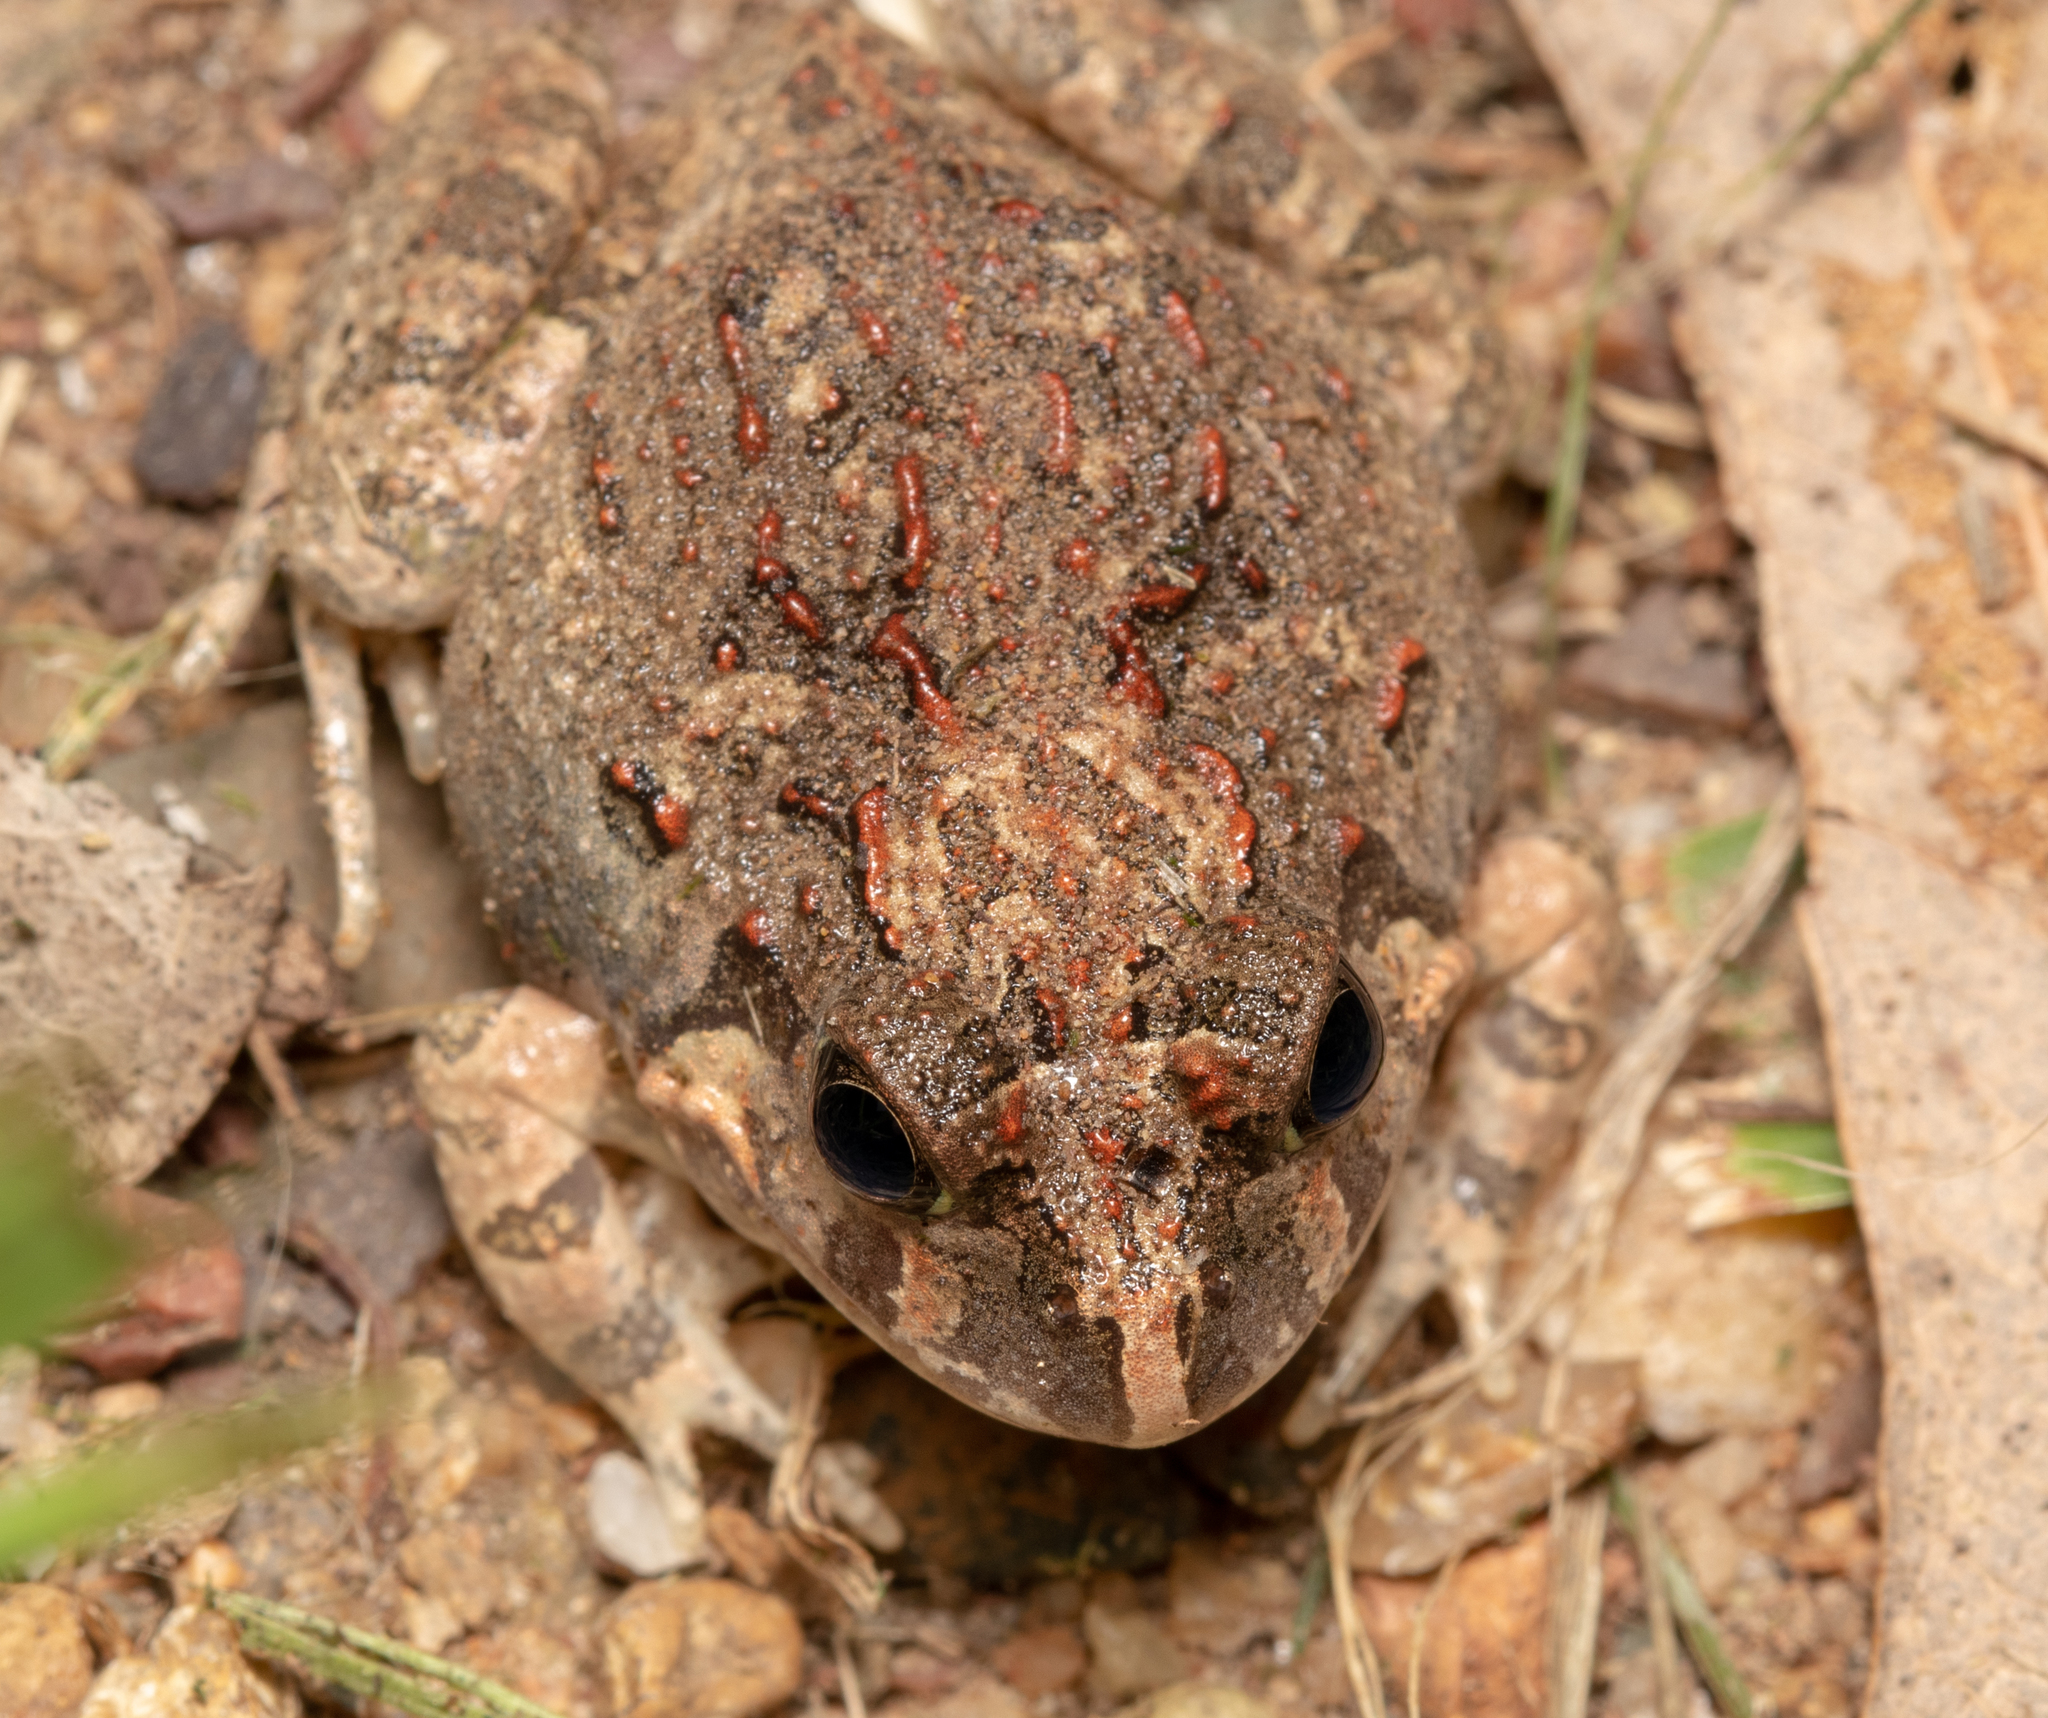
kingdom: Animalia
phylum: Chordata
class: Amphibia
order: Anura
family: Limnodynastidae
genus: Platyplectrum
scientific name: Platyplectrum ornatum
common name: Ornate burrowing frog
